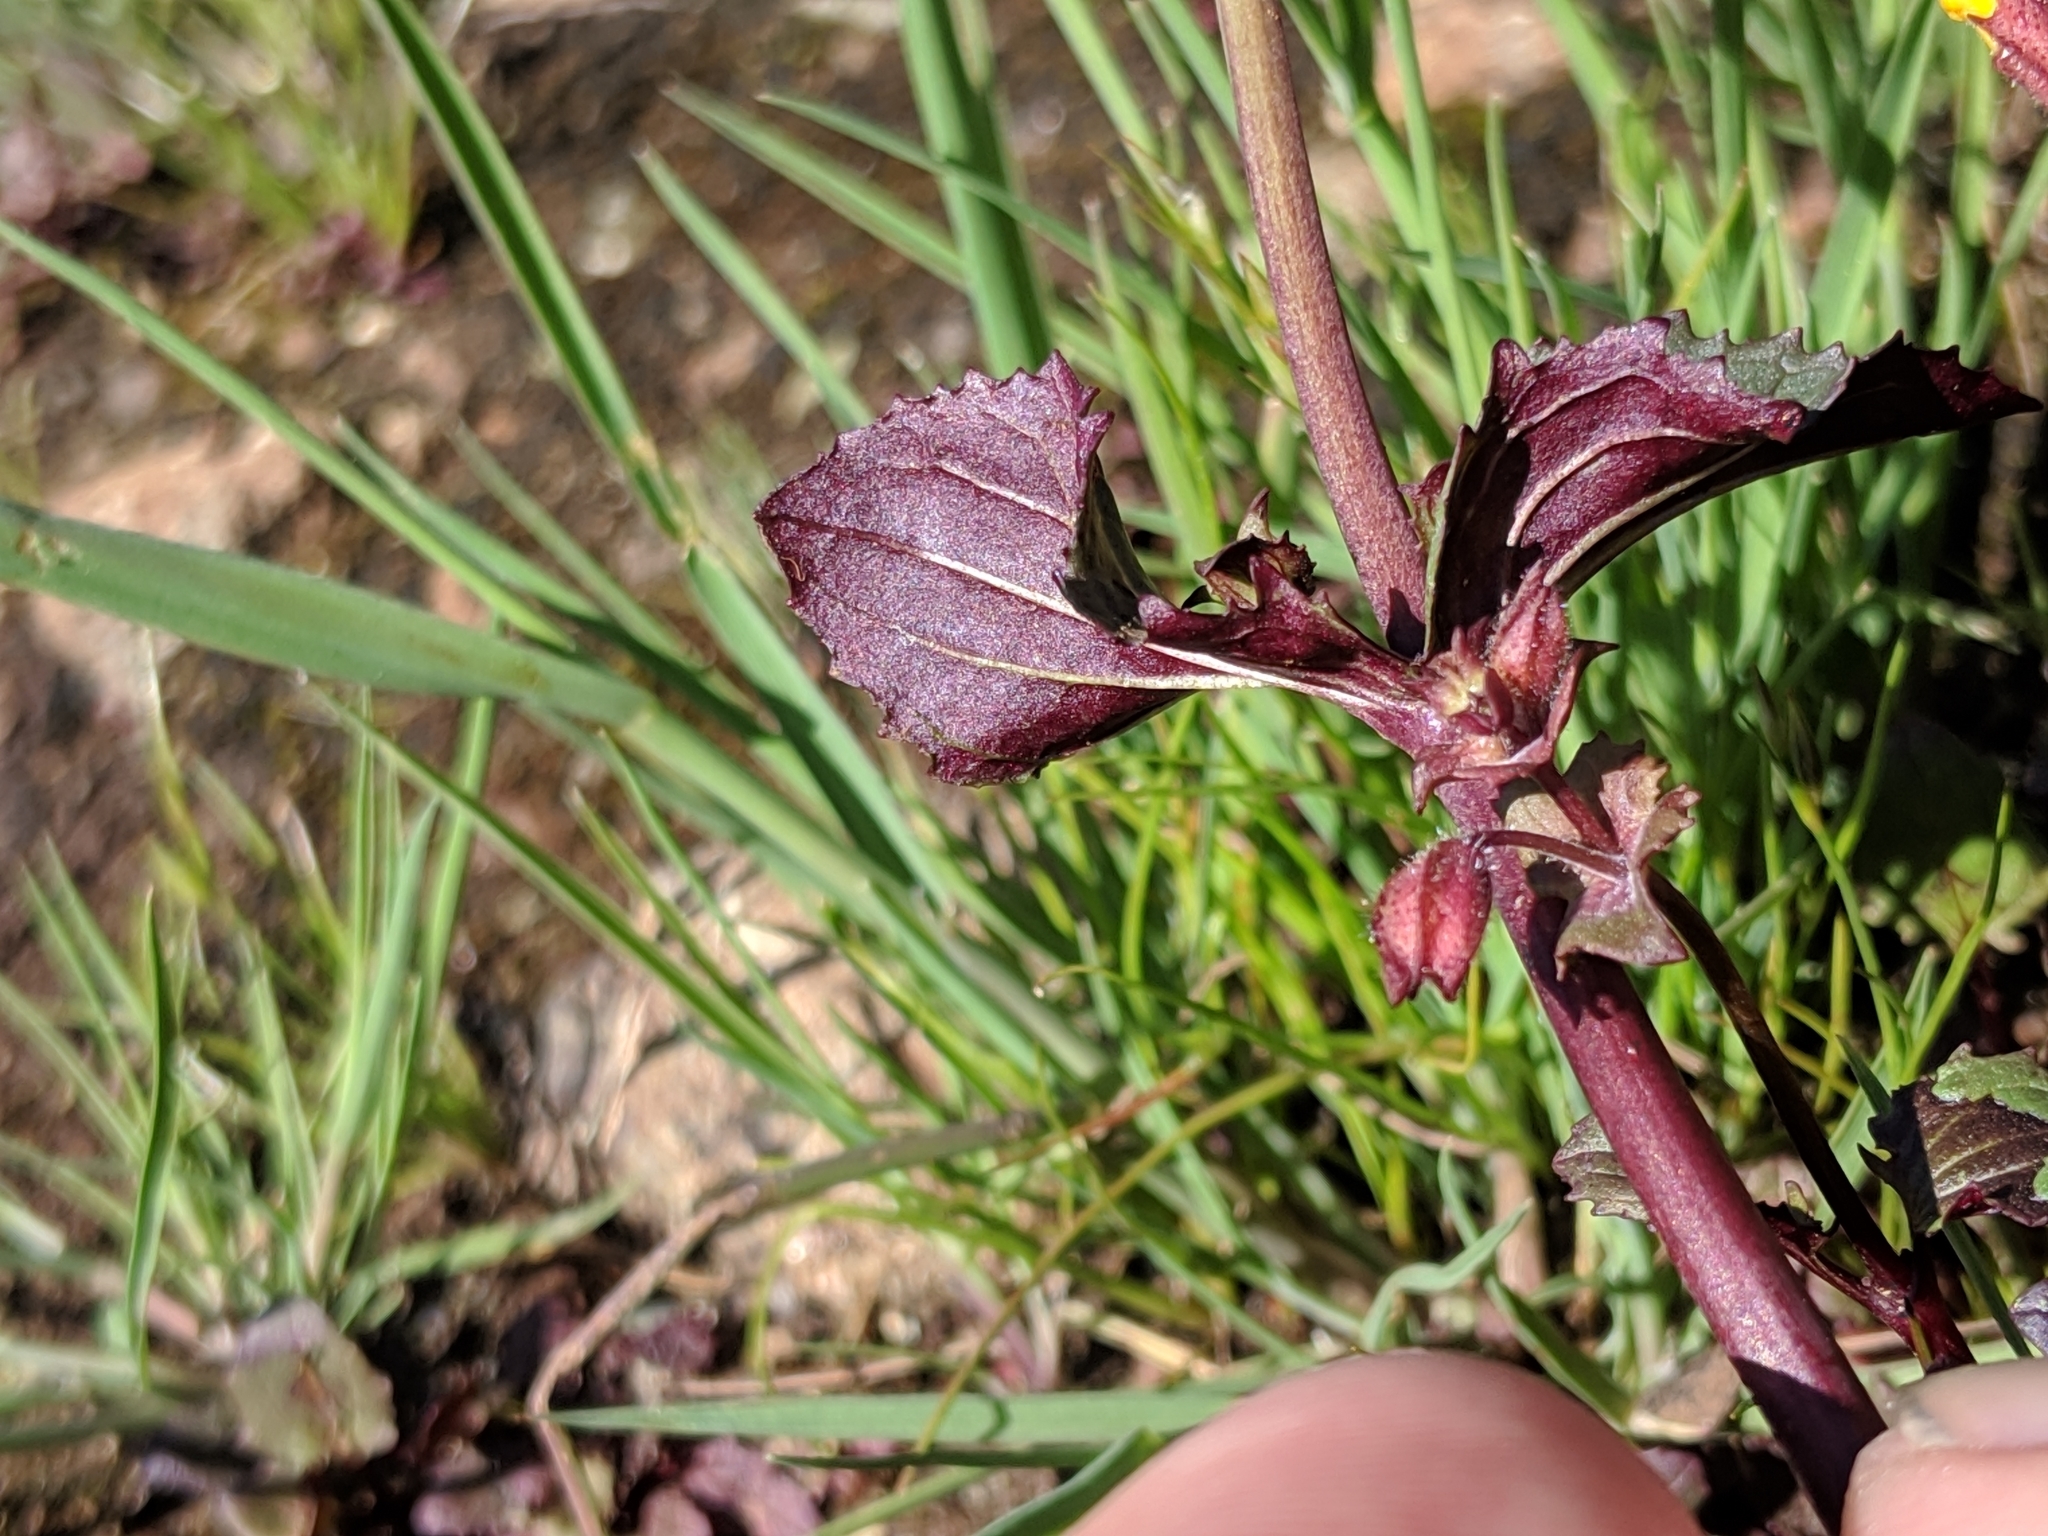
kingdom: Plantae
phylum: Tracheophyta
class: Magnoliopsida
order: Lamiales
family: Phrymaceae
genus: Erythranthe
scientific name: Erythranthe serpentinicola
